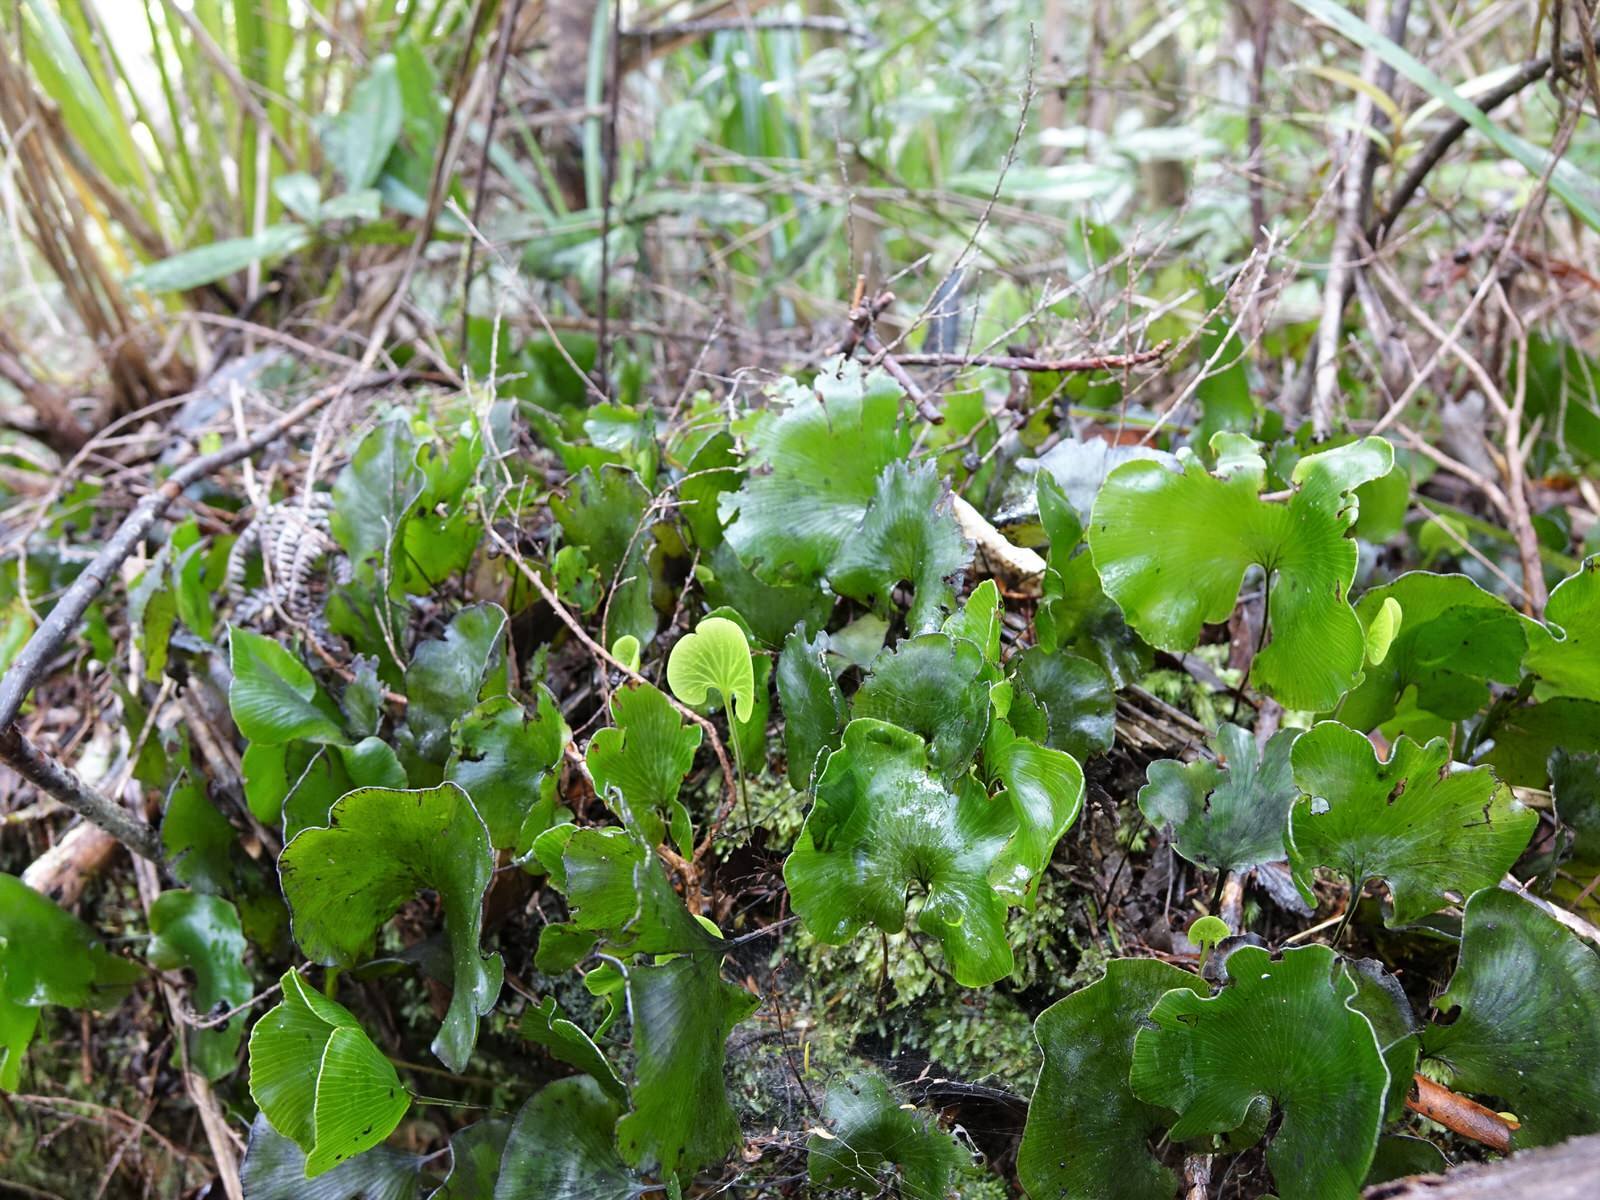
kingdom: Plantae
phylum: Tracheophyta
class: Polypodiopsida
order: Hymenophyllales
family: Hymenophyllaceae
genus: Hymenophyllum
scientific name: Hymenophyllum nephrophyllum
